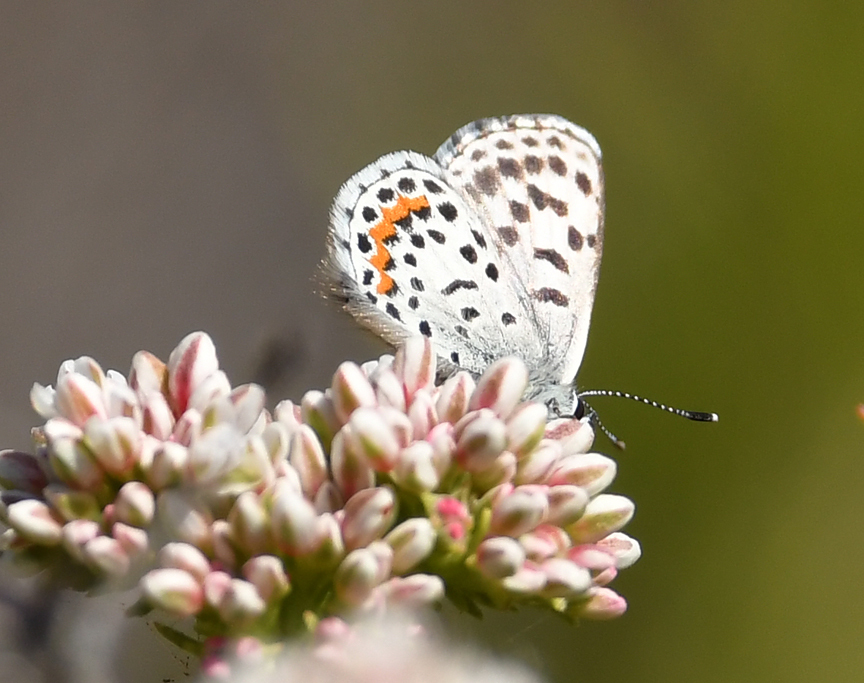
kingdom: Animalia
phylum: Arthropoda
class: Insecta
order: Lepidoptera
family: Lycaenidae
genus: Philotes
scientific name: Philotes bernardino
